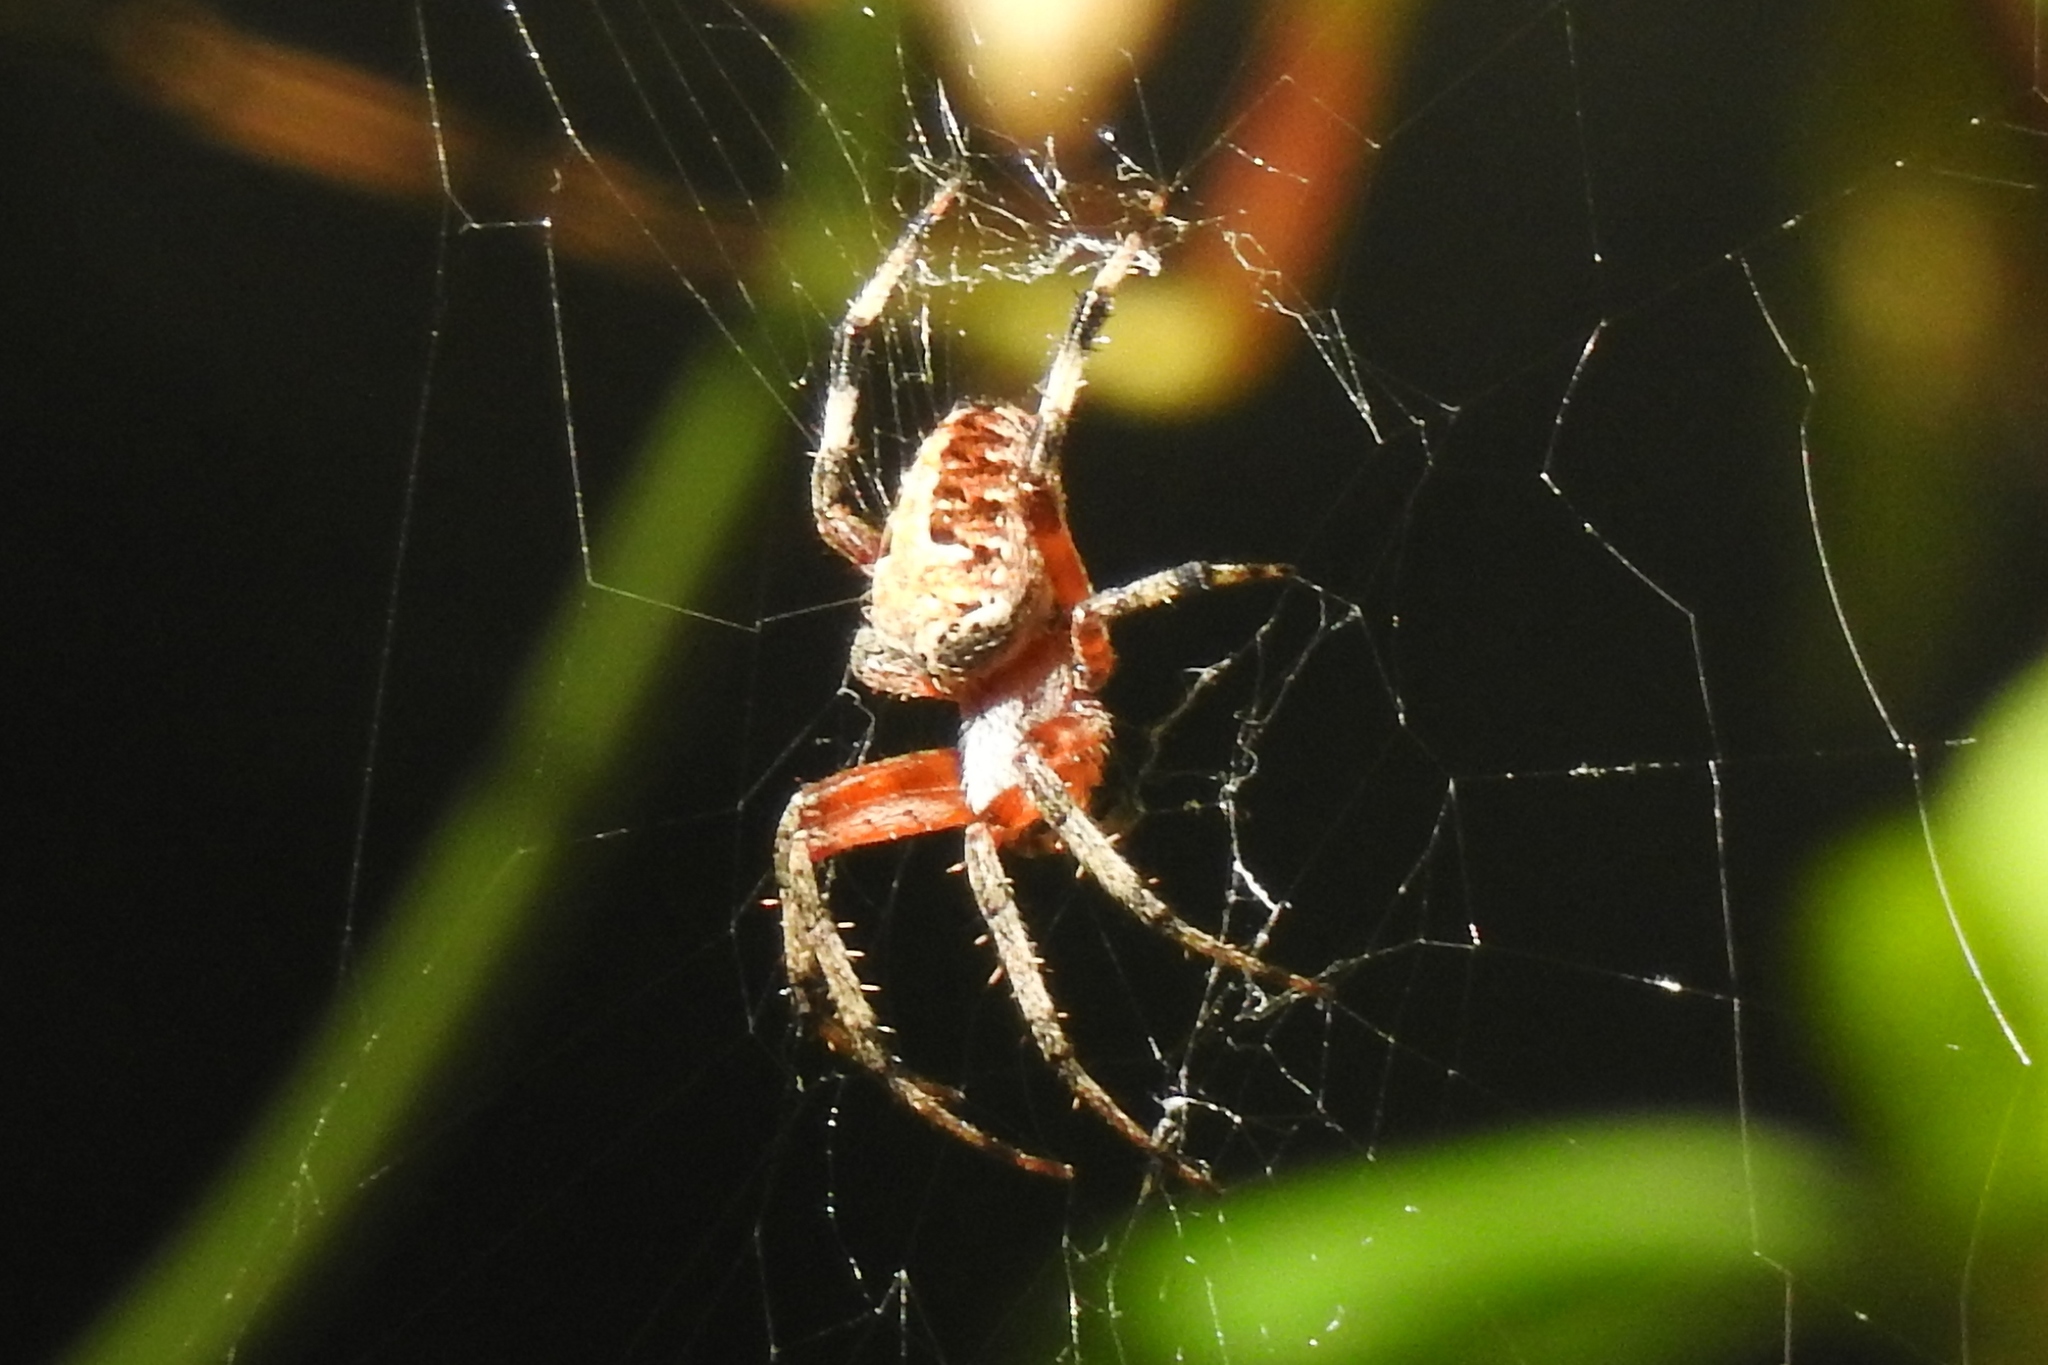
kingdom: Animalia
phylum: Arthropoda
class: Arachnida
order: Araneae
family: Araneidae
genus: Neoscona
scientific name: Neoscona domiciliorum
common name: Red-femured spotted orbweaver
